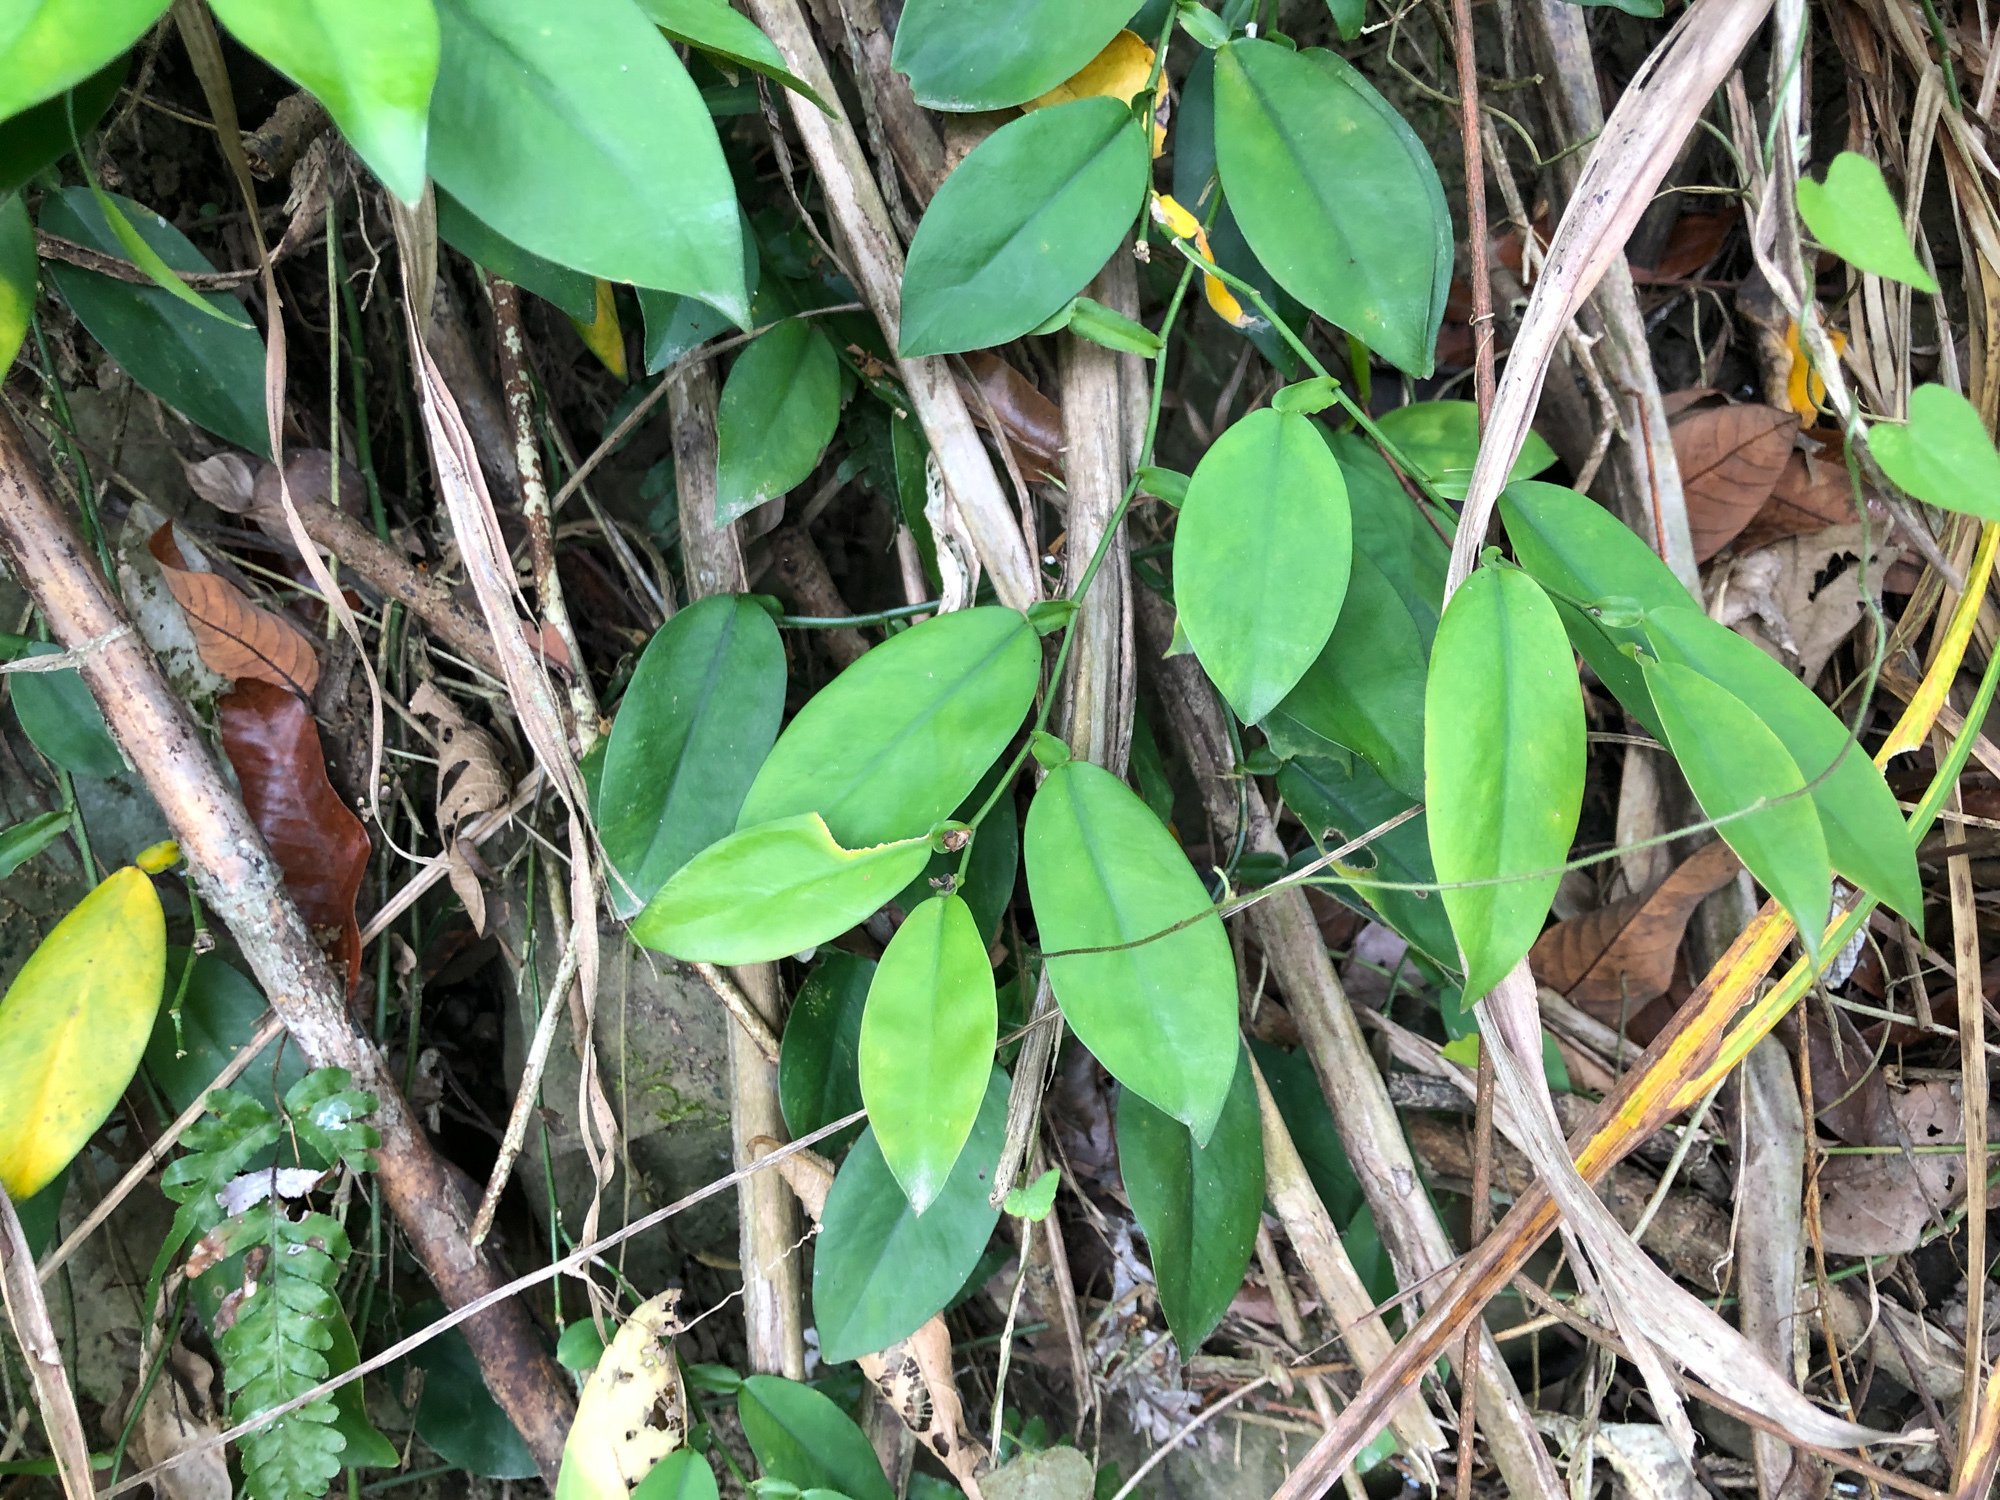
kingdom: Plantae
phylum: Tracheophyta
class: Liliopsida
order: Alismatales
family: Araceae
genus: Pothos
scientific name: Pothos chinensis
